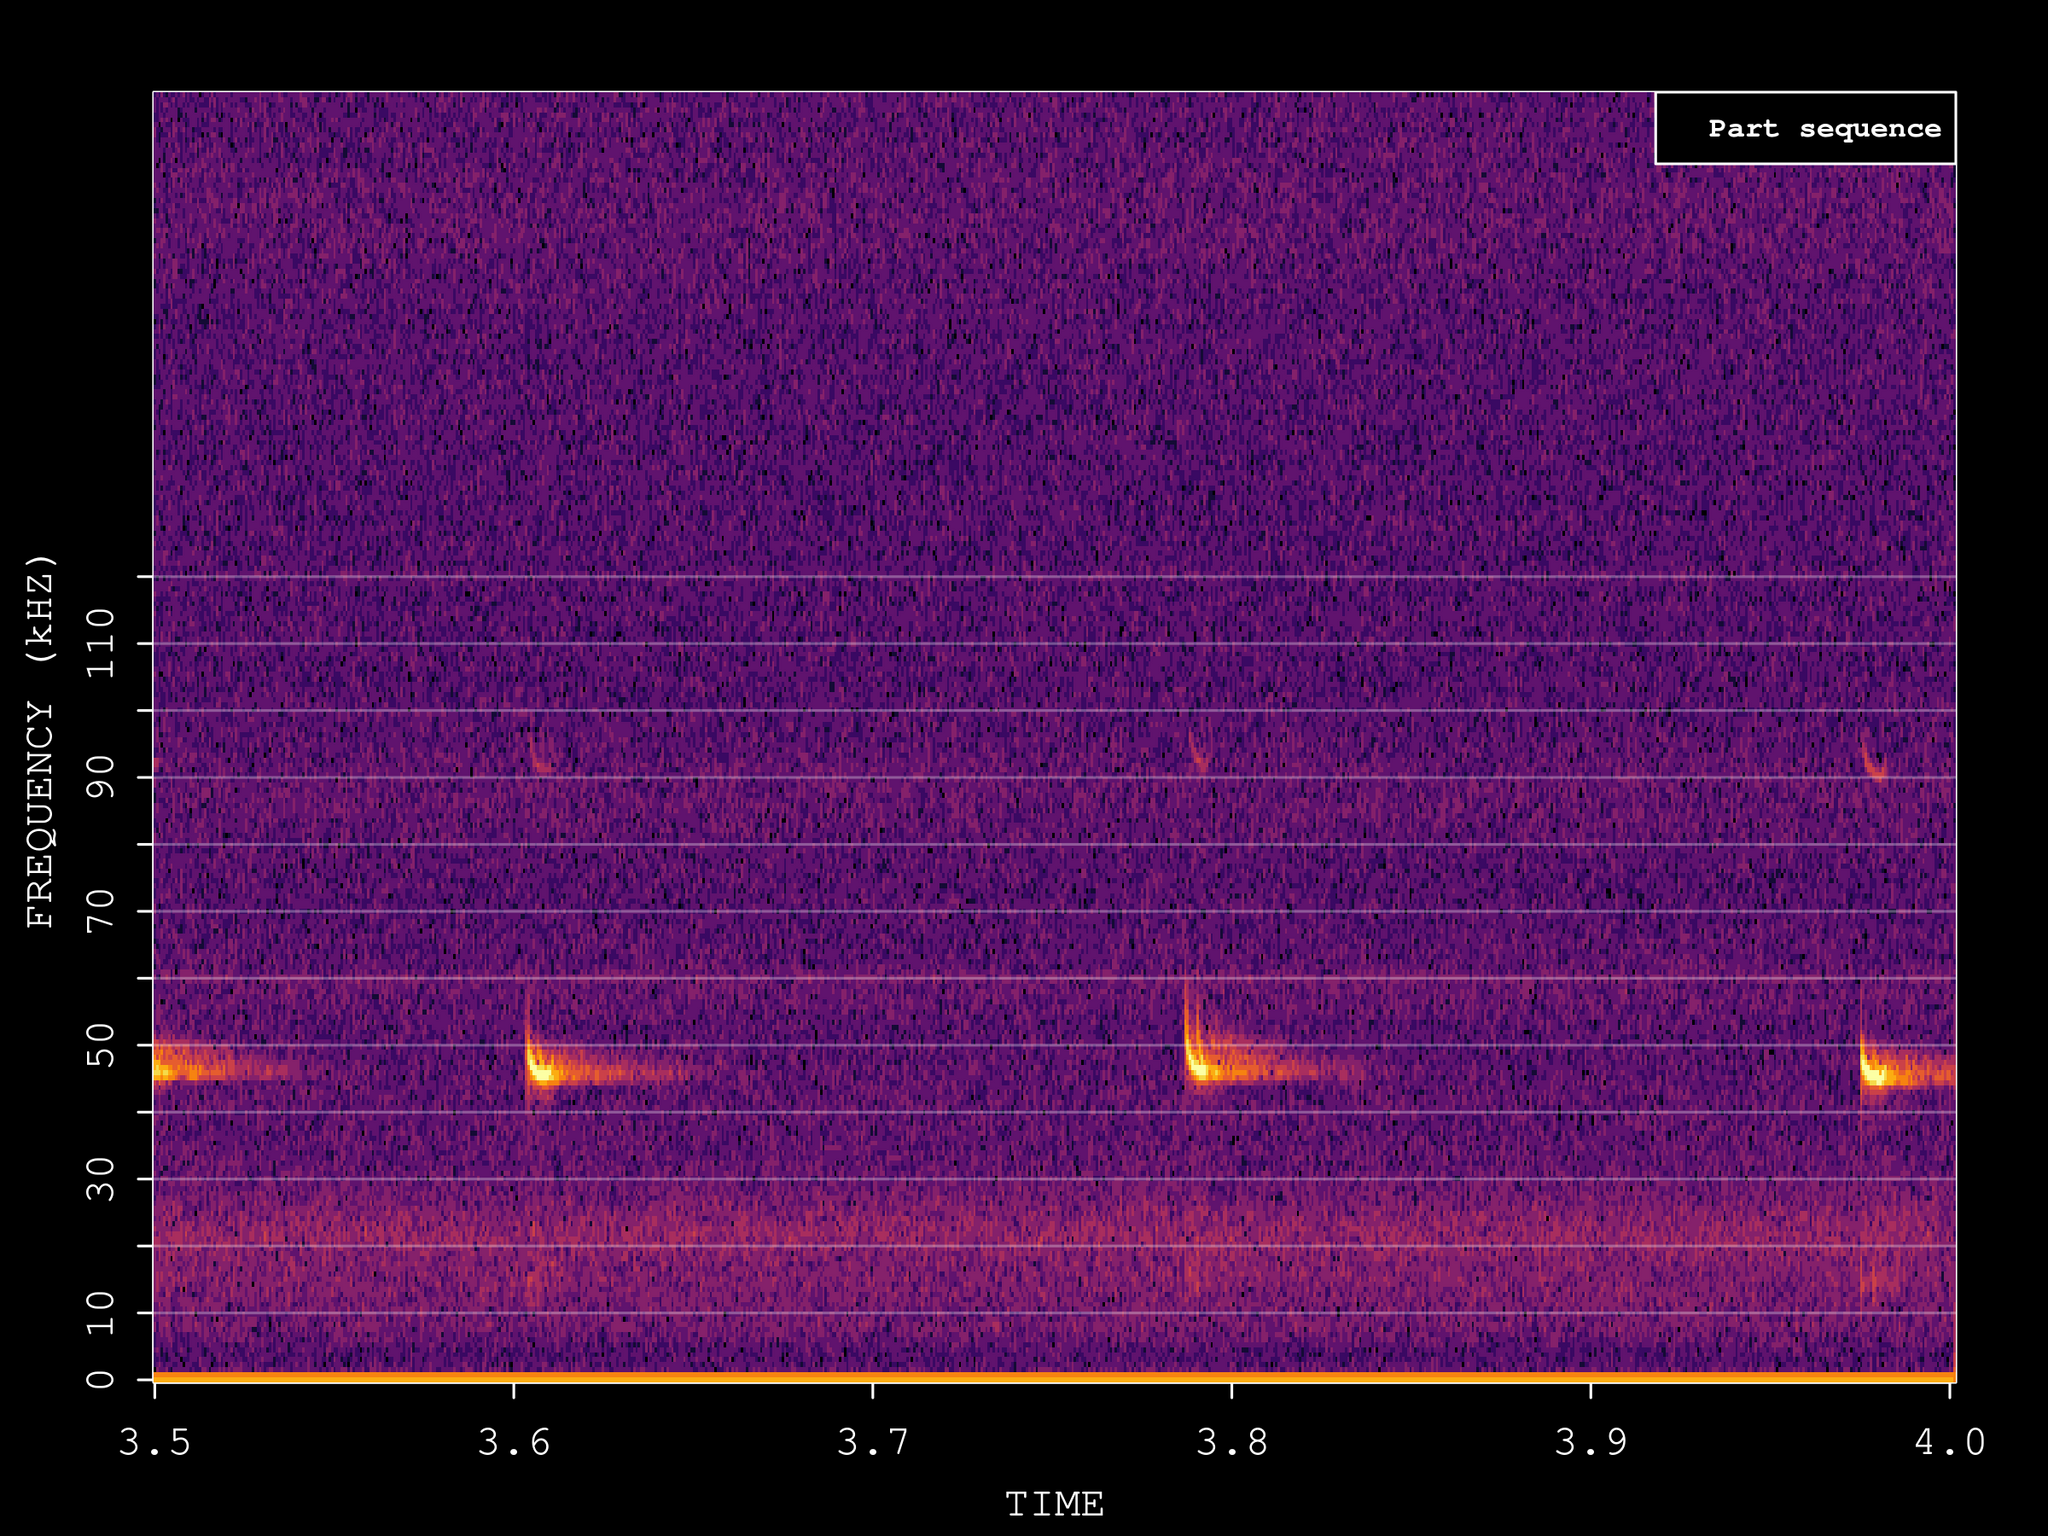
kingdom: Animalia
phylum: Chordata
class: Mammalia
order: Chiroptera
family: Vespertilionidae
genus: Pipistrellus
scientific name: Pipistrellus pipistrellus
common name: Common pipistrelle
